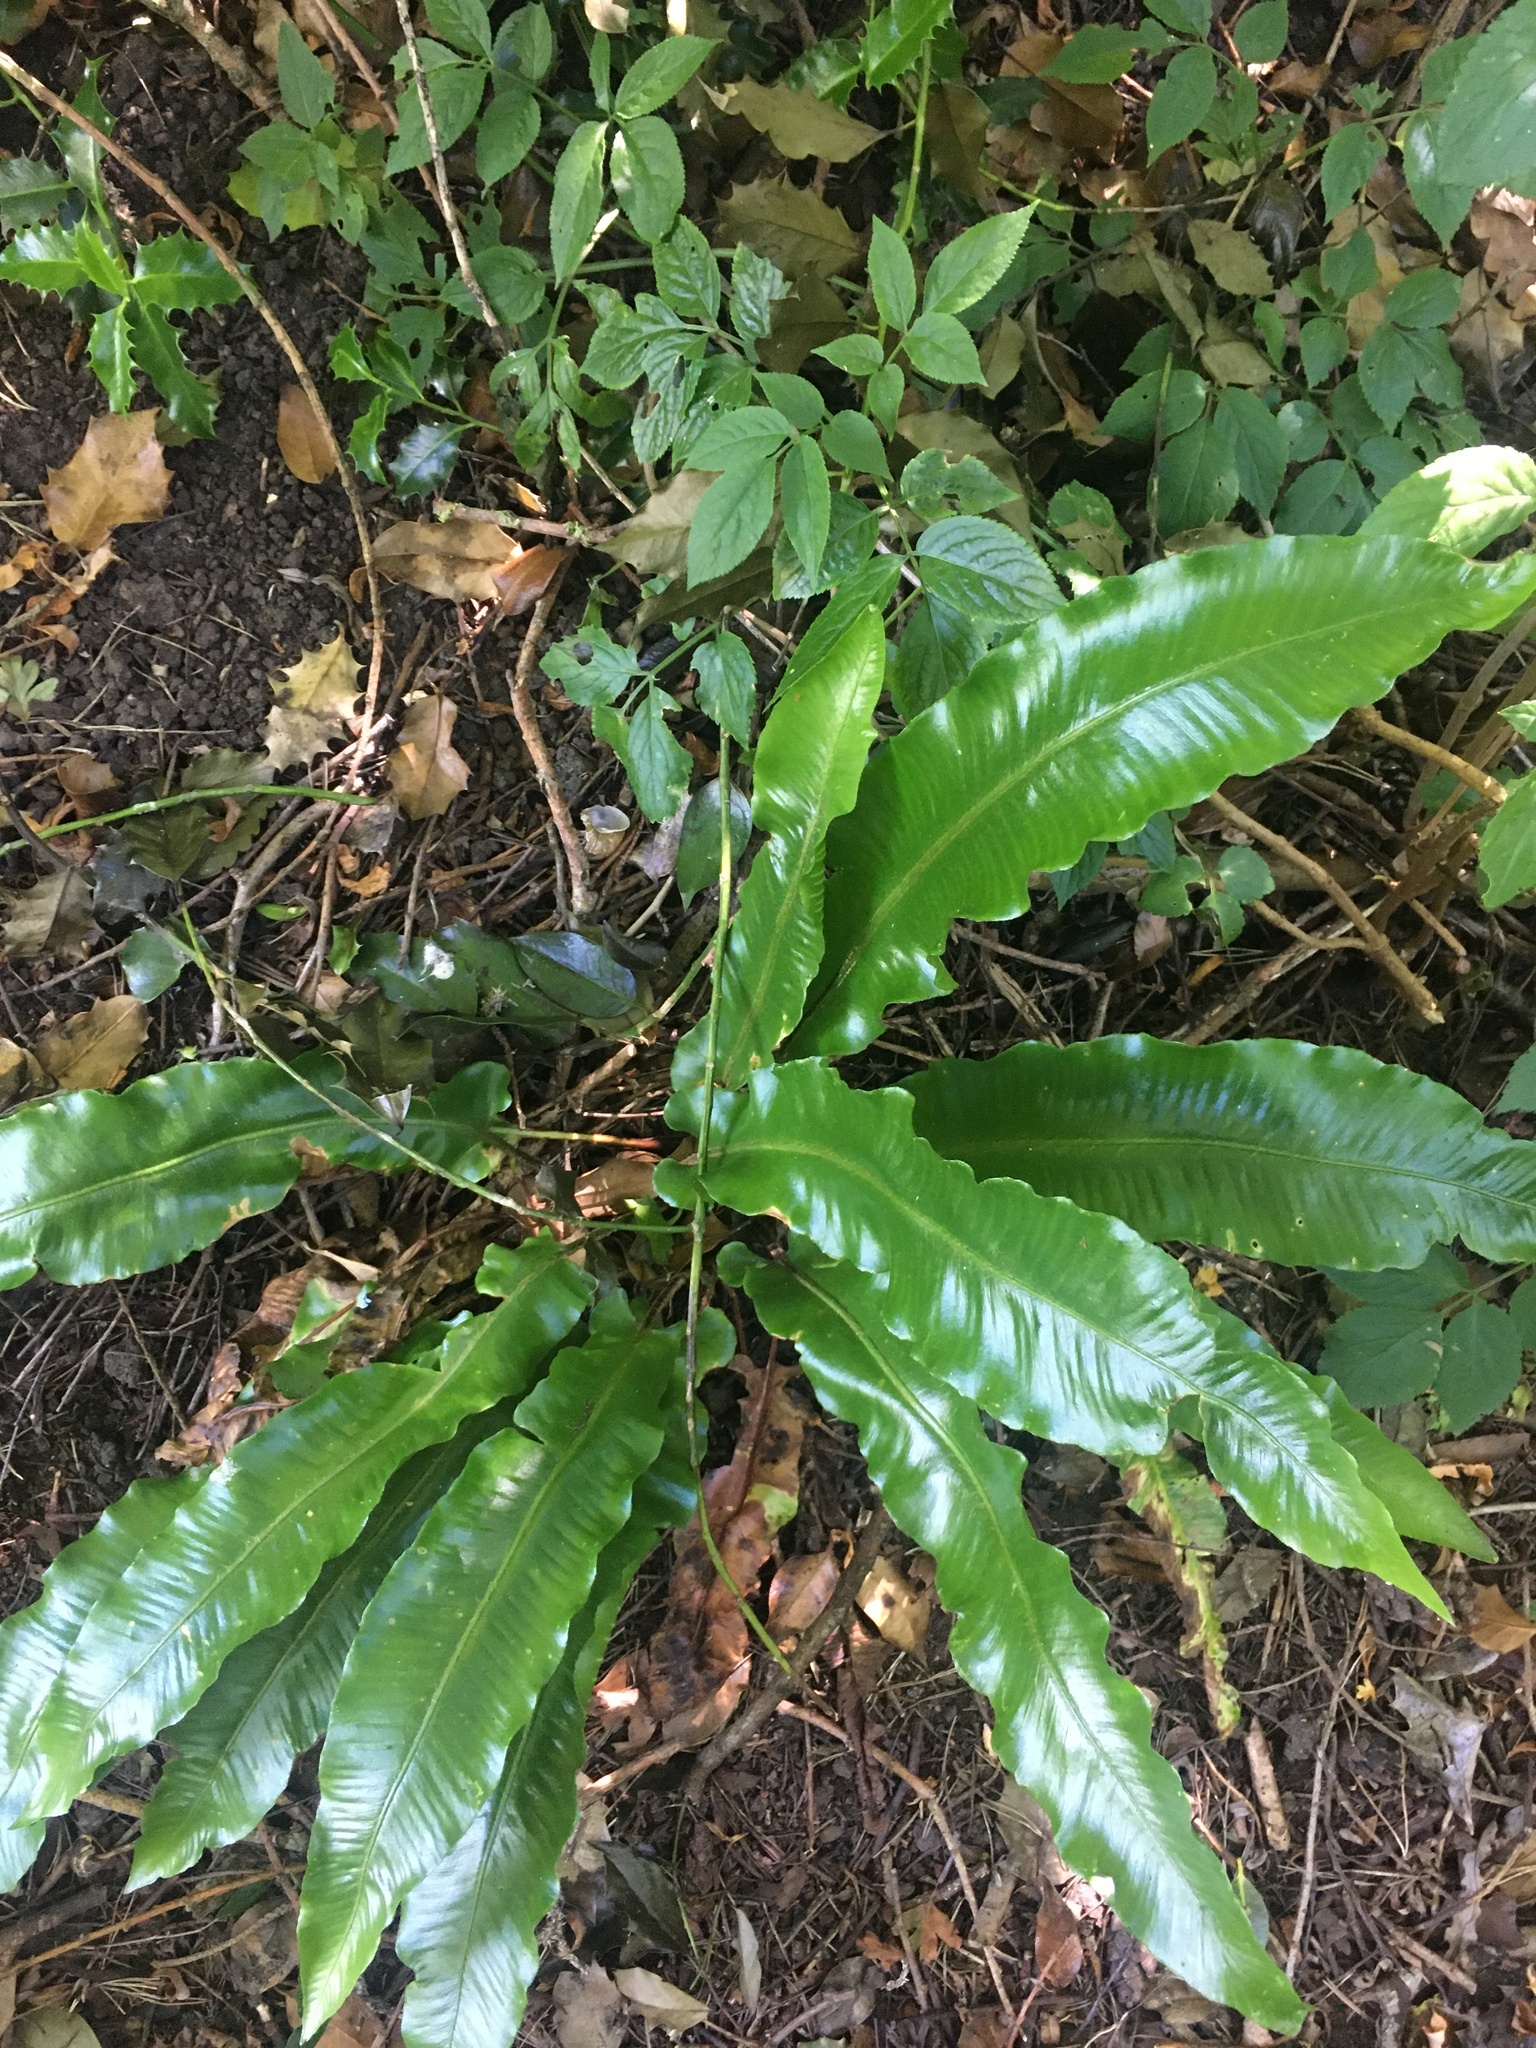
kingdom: Plantae
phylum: Tracheophyta
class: Polypodiopsida
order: Polypodiales
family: Aspleniaceae
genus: Asplenium
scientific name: Asplenium scolopendrium
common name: Hart's-tongue fern
